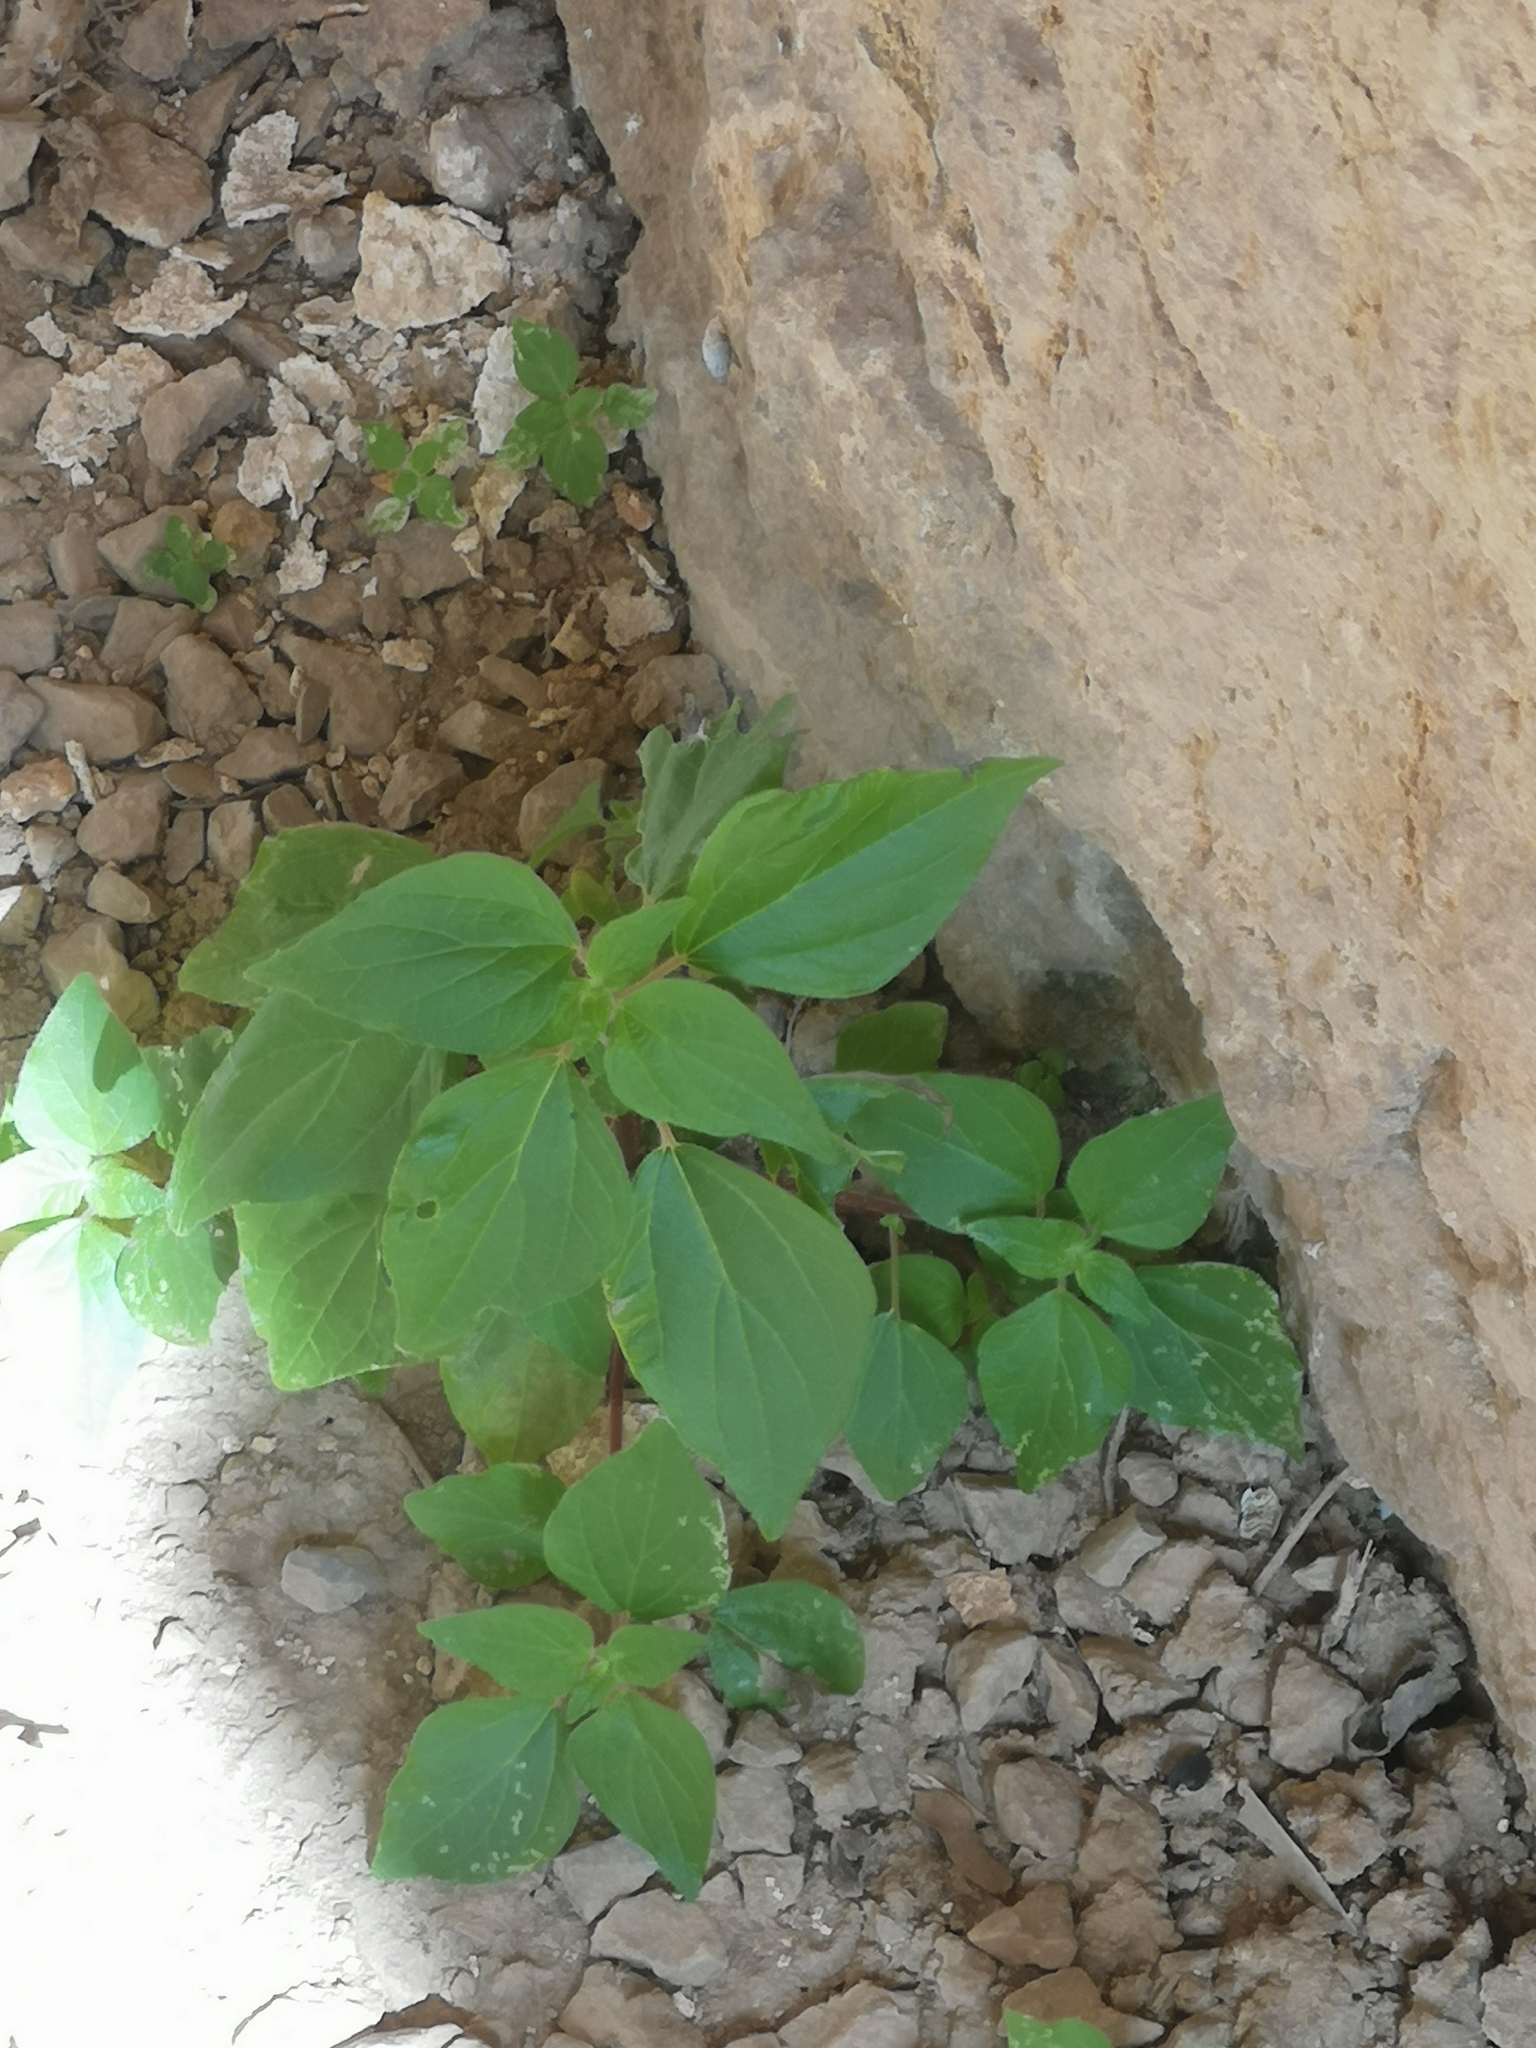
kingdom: Plantae
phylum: Tracheophyta
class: Magnoliopsida
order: Rosales
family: Urticaceae
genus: Parietaria
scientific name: Parietaria judaica
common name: Pellitory-of-the-wall
